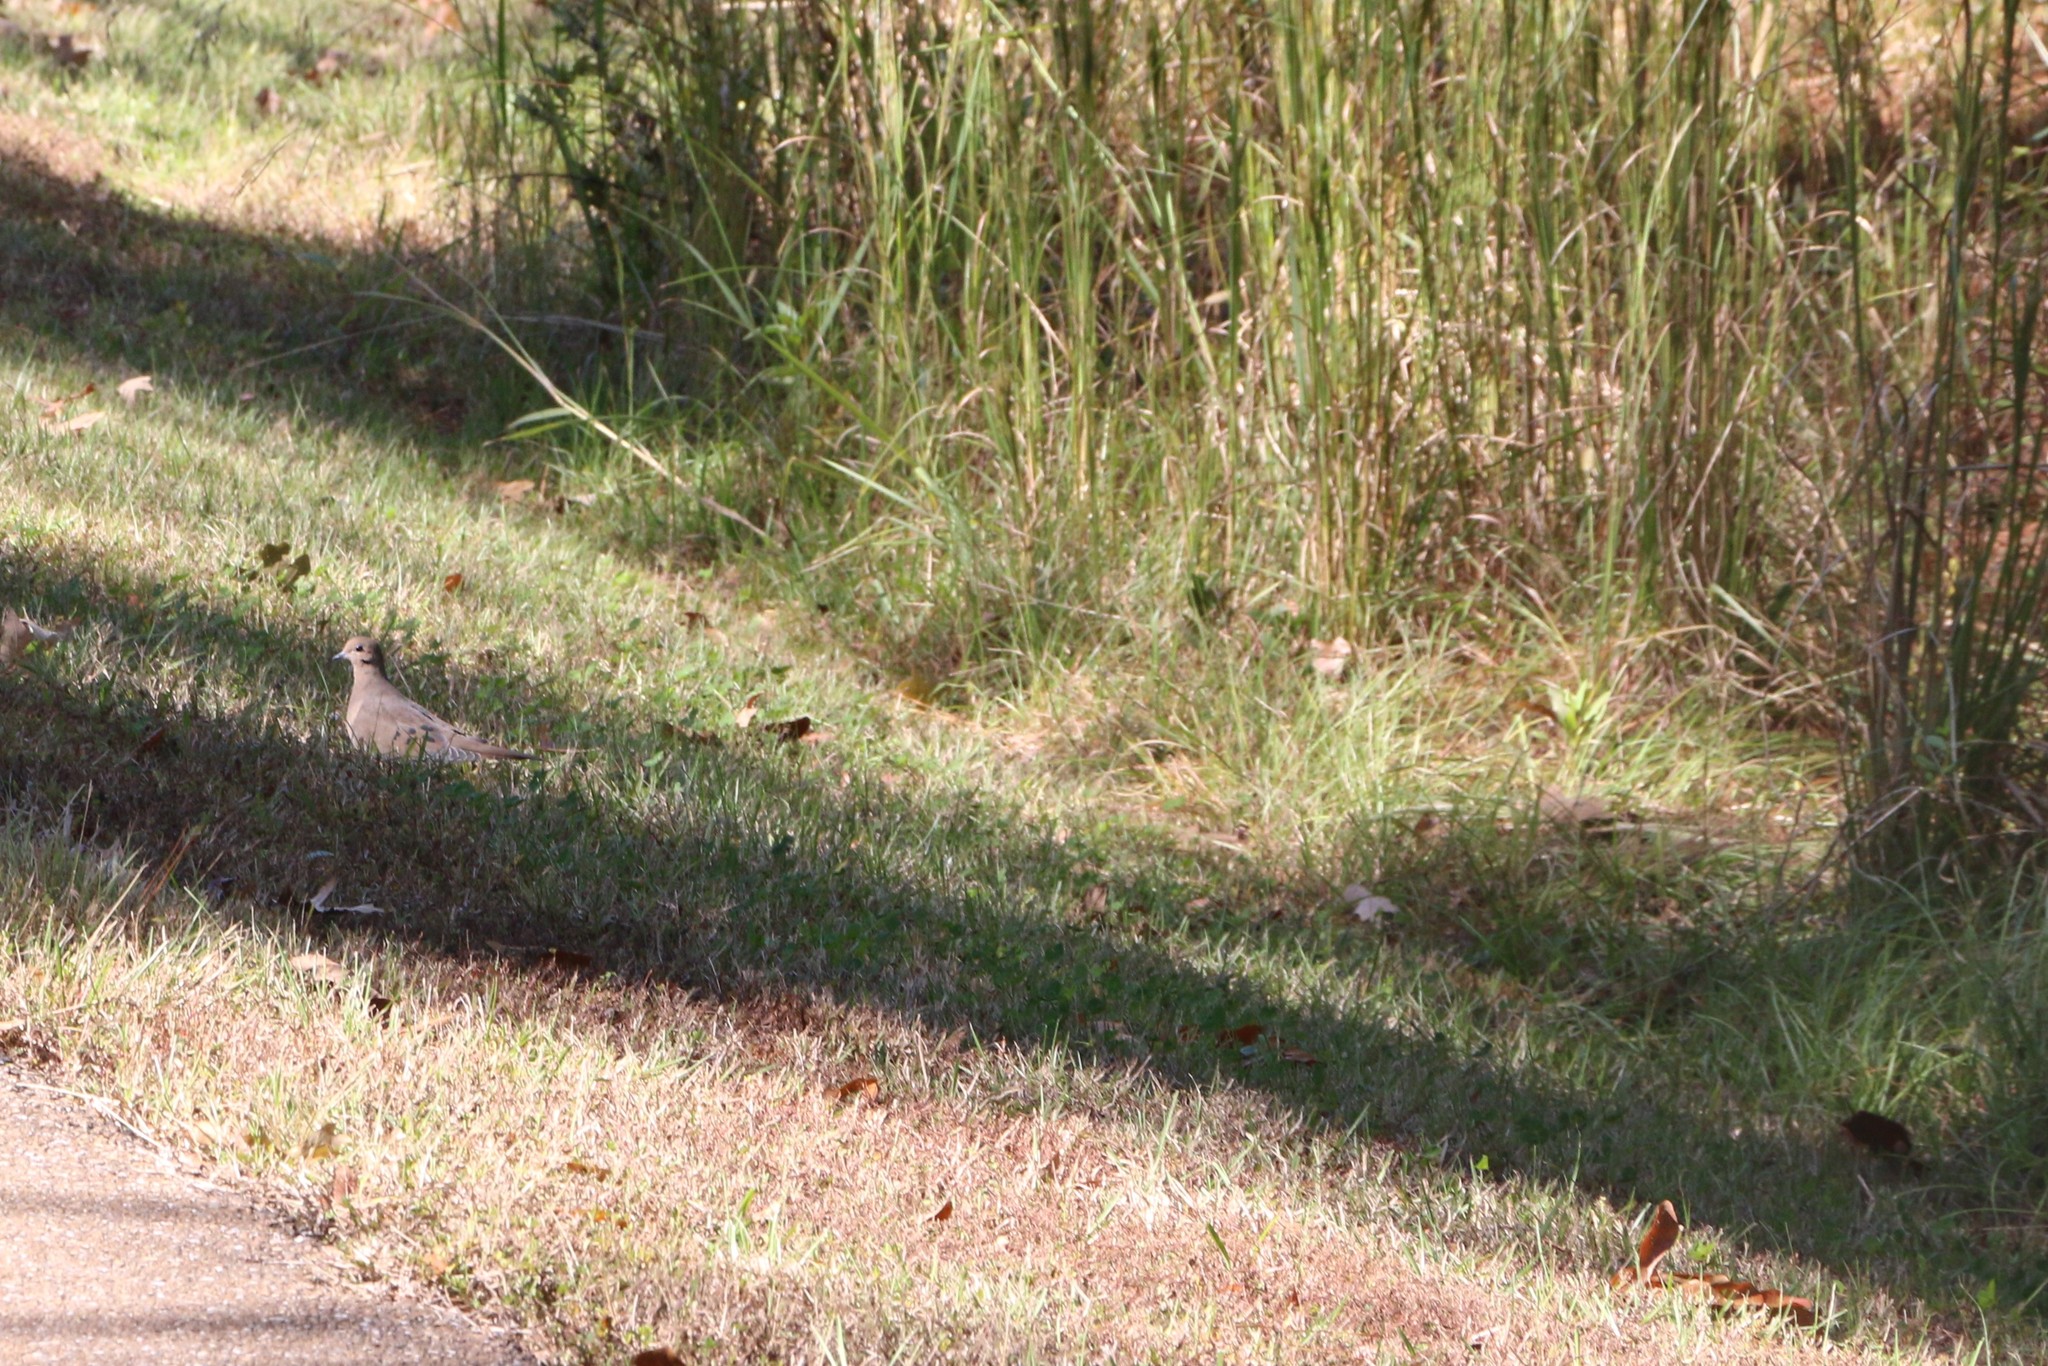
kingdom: Animalia
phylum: Chordata
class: Aves
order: Columbiformes
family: Columbidae
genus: Zenaida
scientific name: Zenaida macroura
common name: Mourning dove
